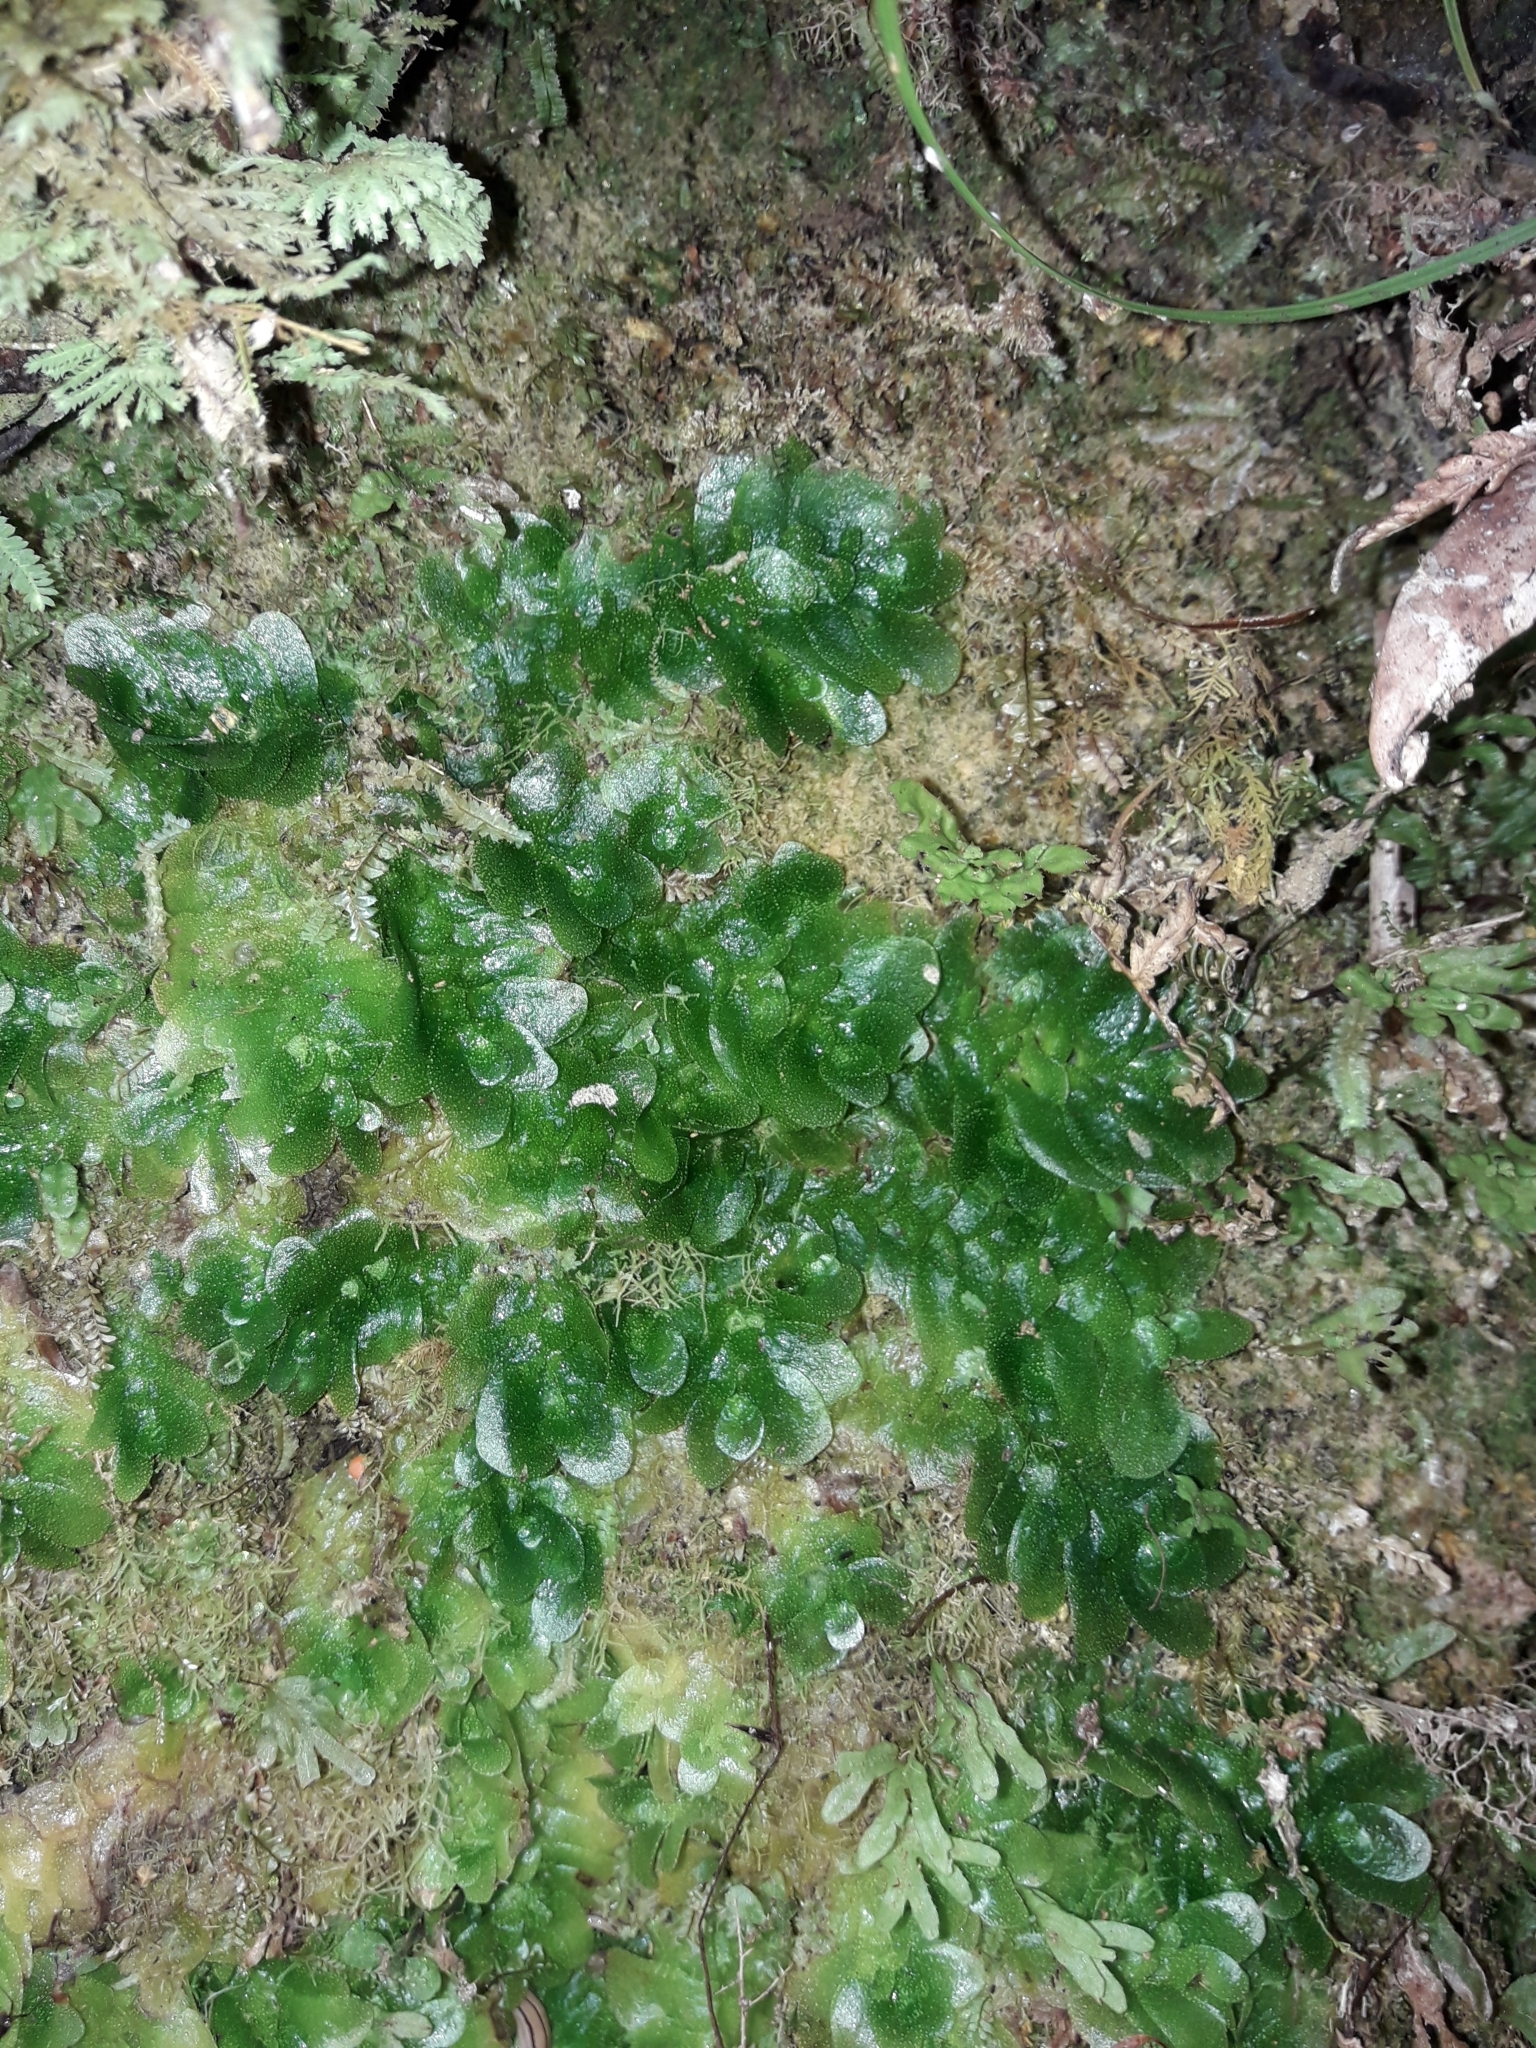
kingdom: Plantae
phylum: Marchantiophyta
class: Haplomitriopsida
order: Treubiales
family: Treubiaceae
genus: Treubia
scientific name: Treubia lacunosa
